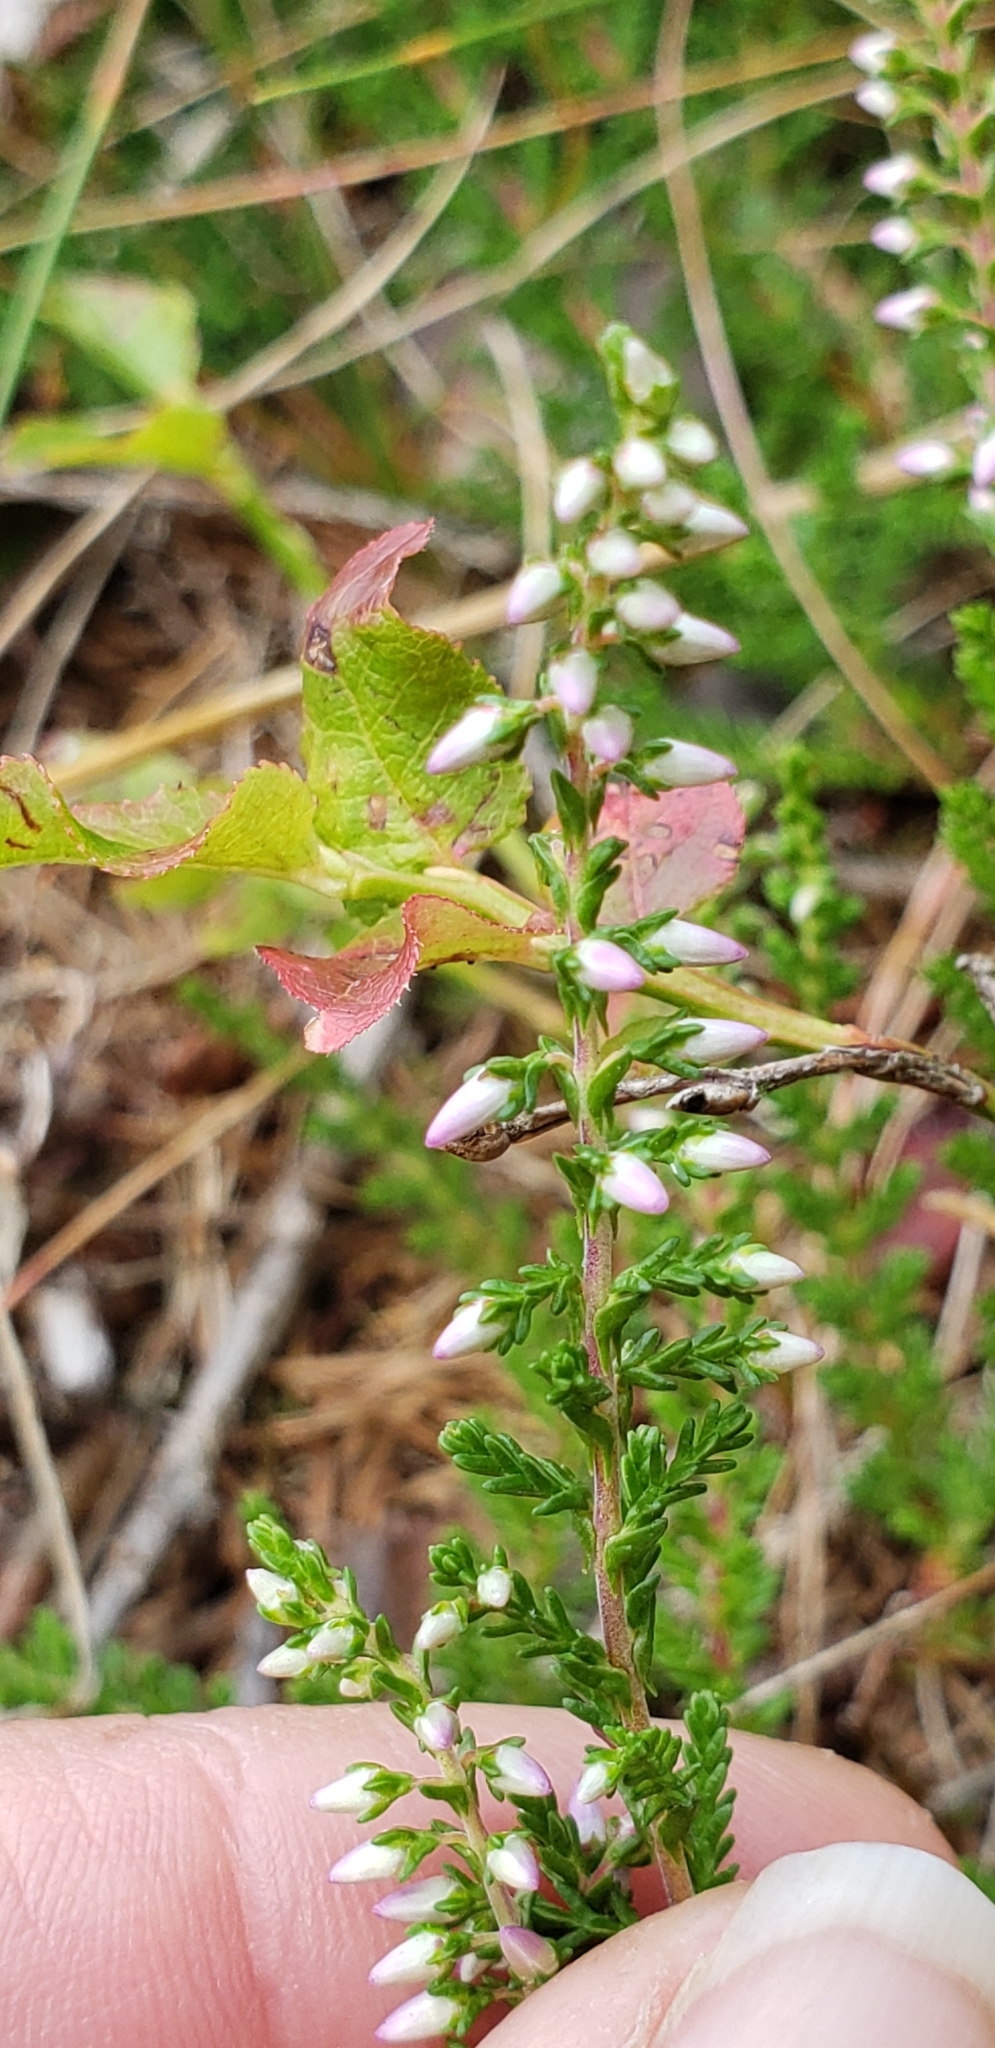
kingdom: Plantae
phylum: Tracheophyta
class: Magnoliopsida
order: Ericales
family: Ericaceae
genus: Calluna
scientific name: Calluna vulgaris
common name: Heather
